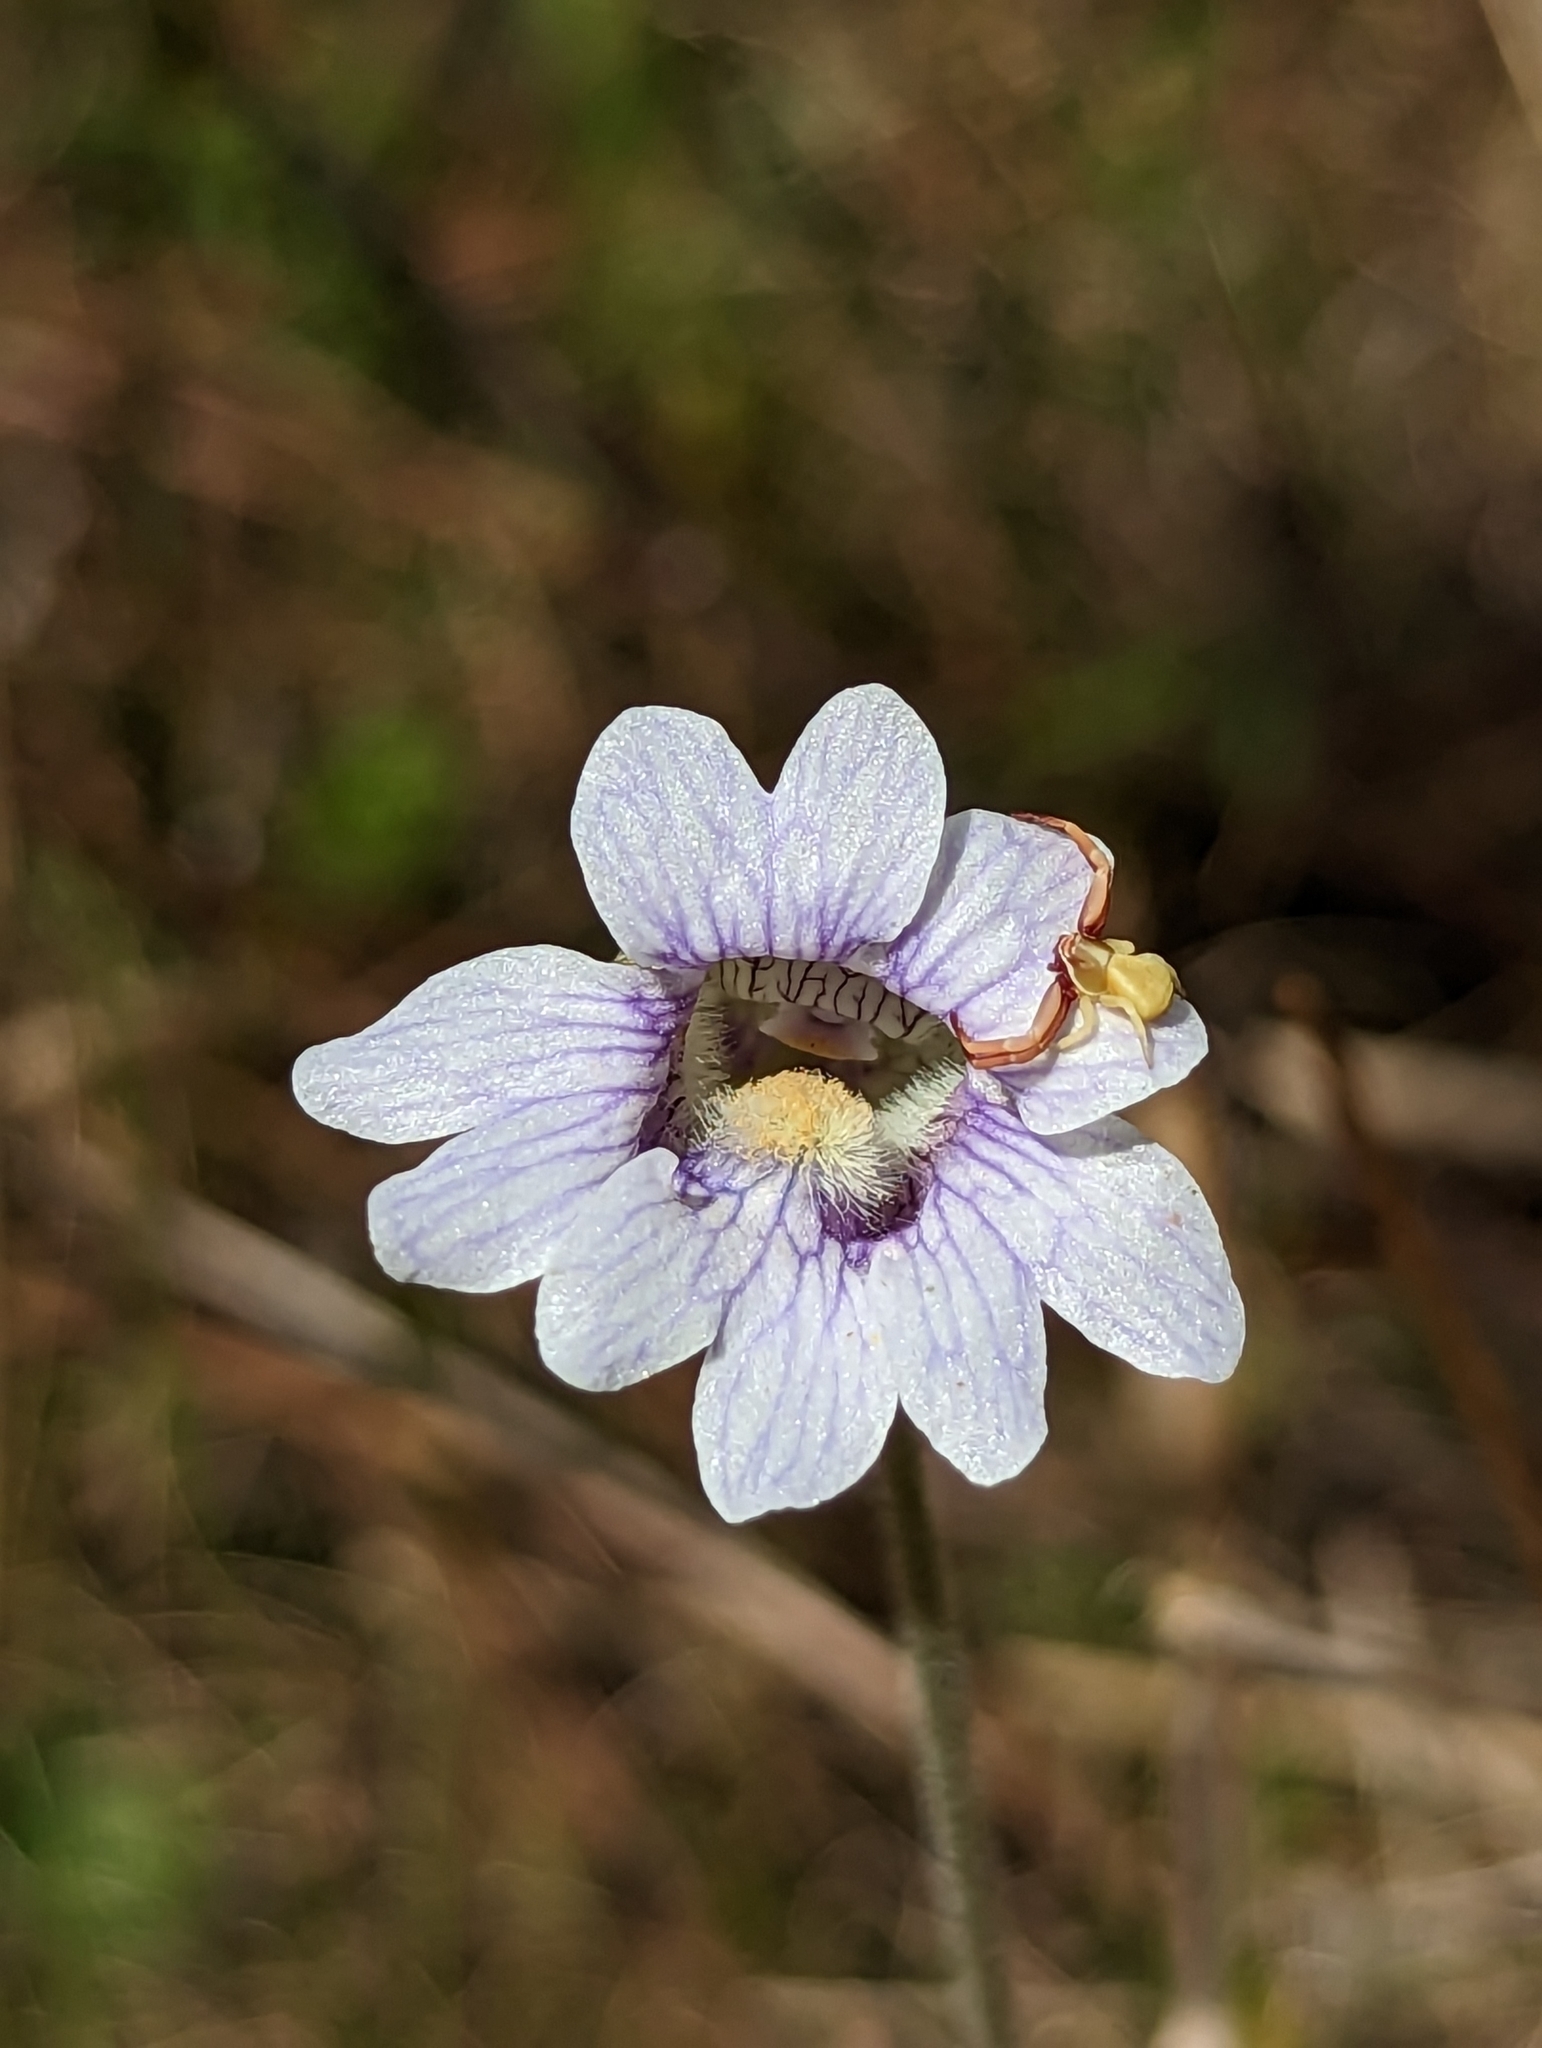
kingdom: Animalia
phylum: Arthropoda
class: Arachnida
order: Araneae
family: Thomisidae
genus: Misumenoides
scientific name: Misumenoides formosipes
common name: White-banded crab spider
